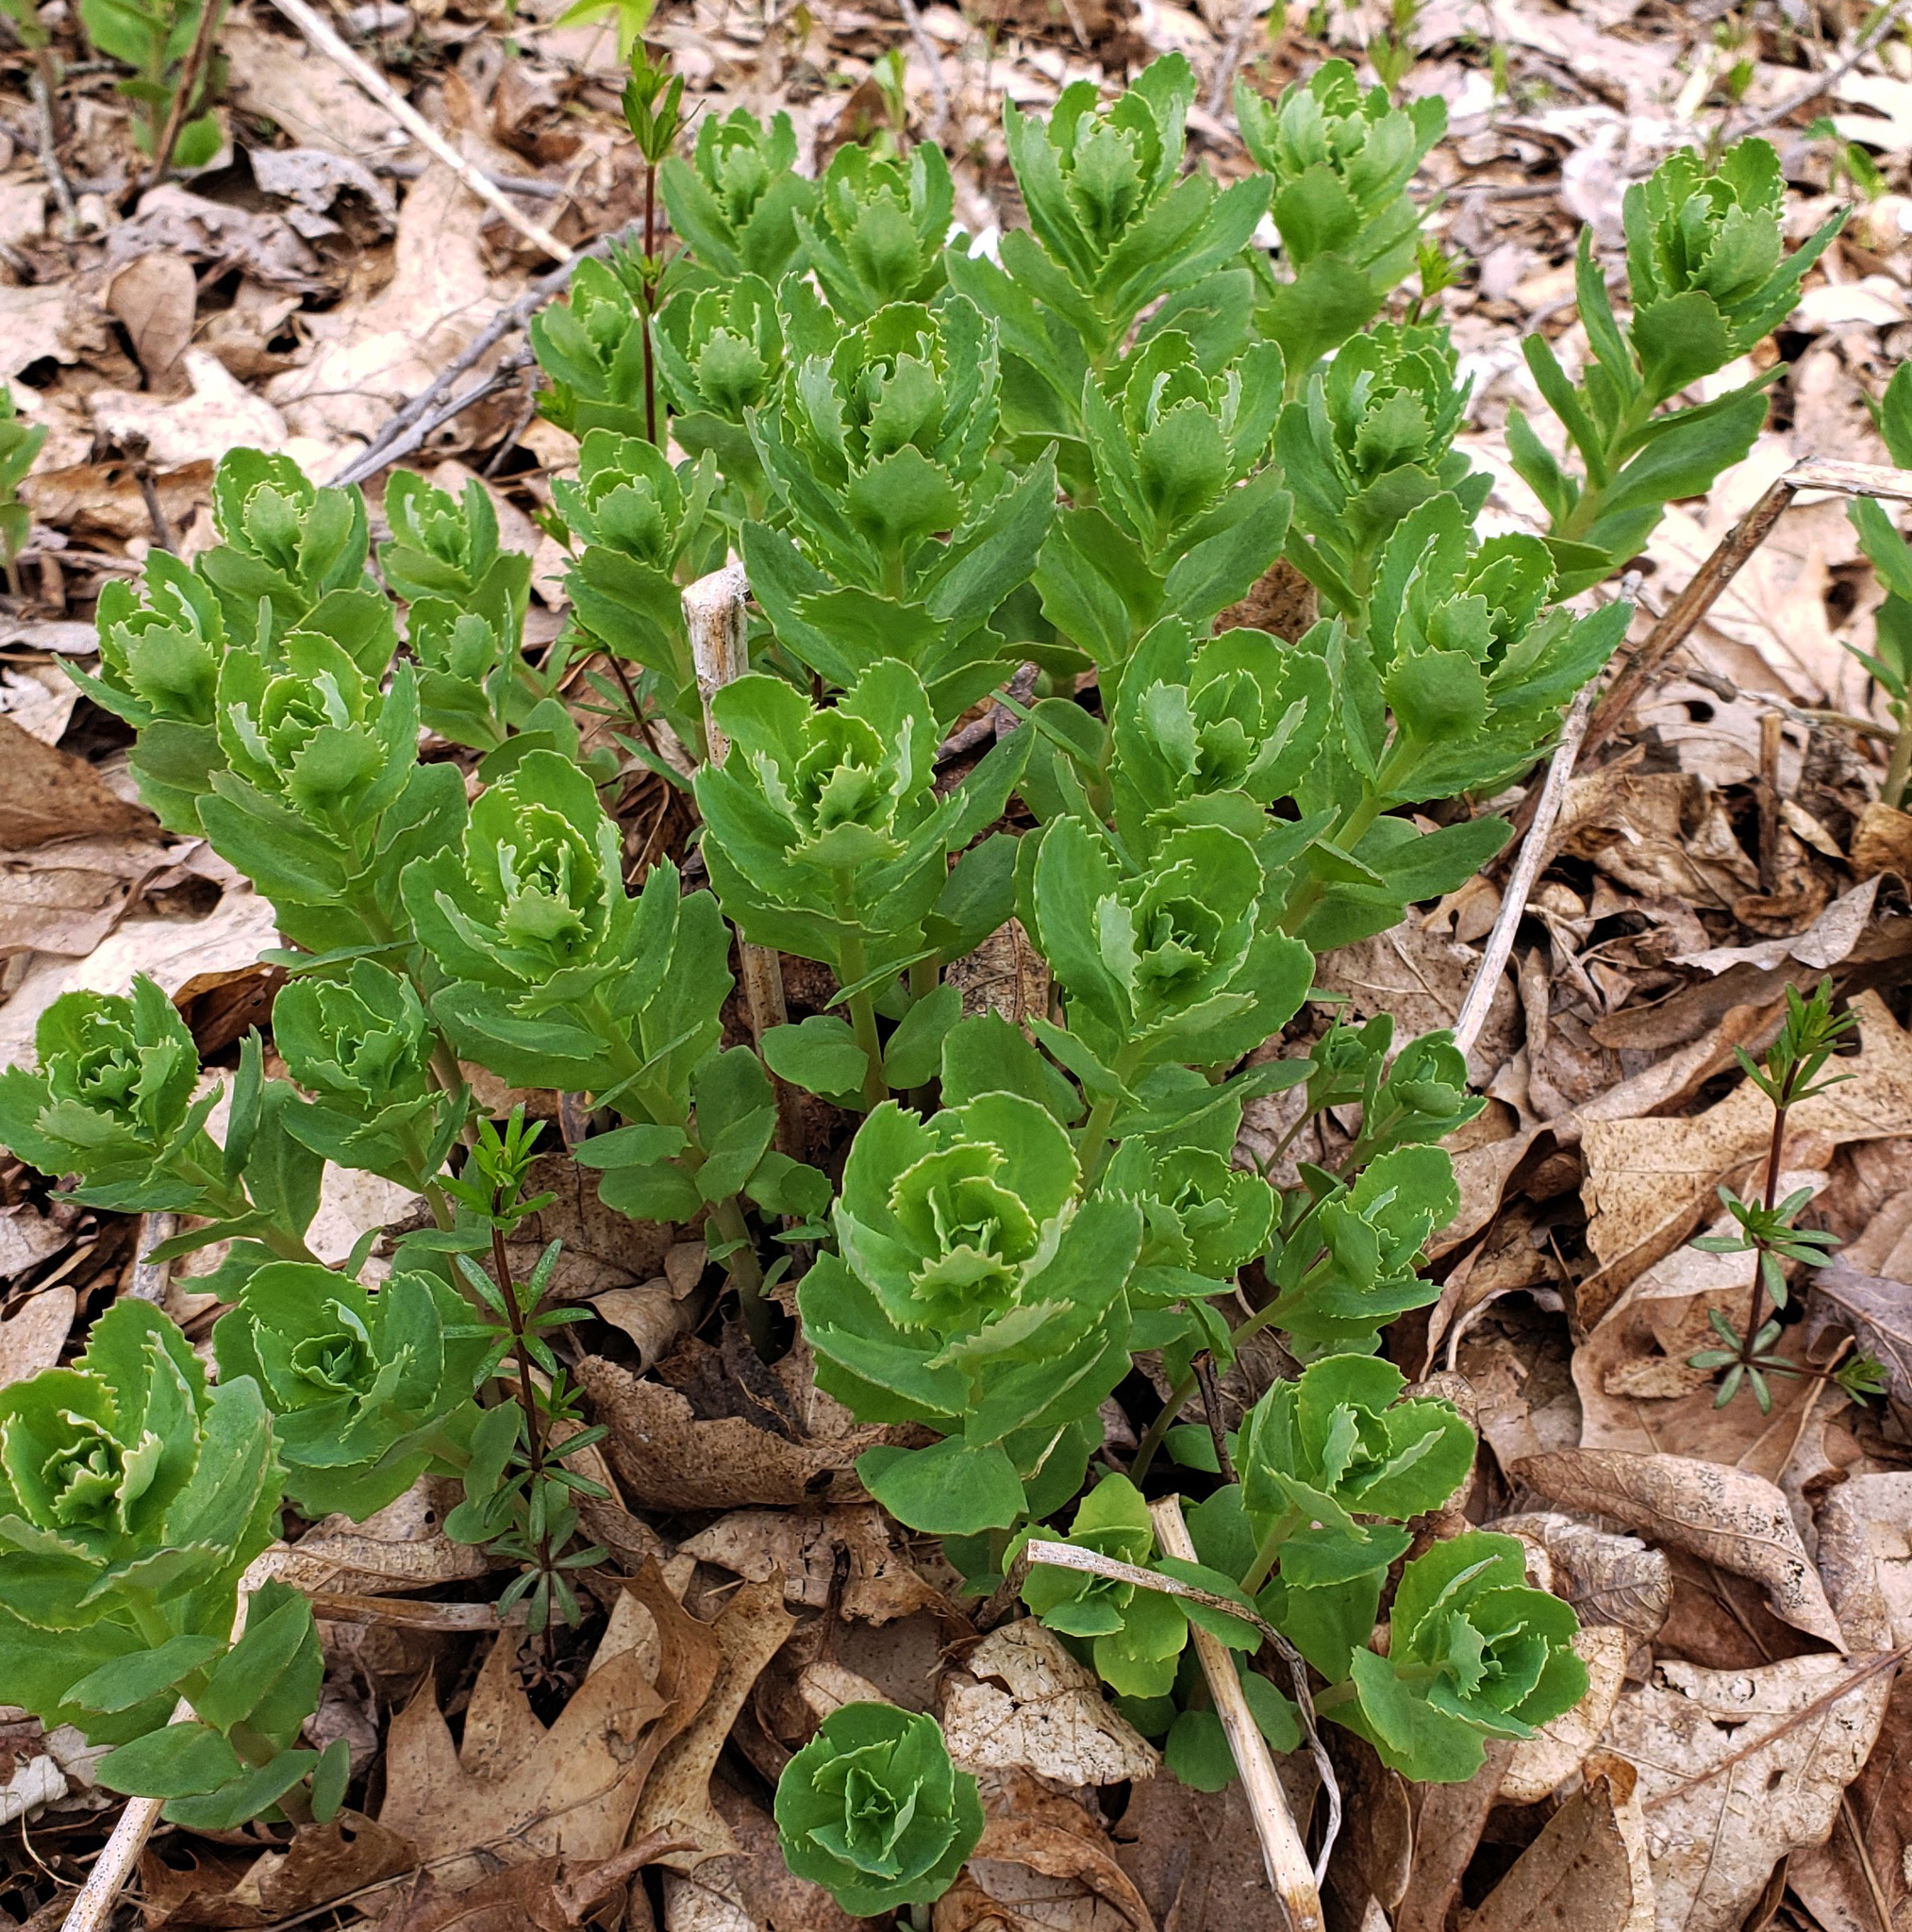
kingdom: Plantae
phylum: Tracheophyta
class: Magnoliopsida
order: Saxifragales
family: Crassulaceae
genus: Hylotelephium
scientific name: Hylotelephium telephium
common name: Live-forever
